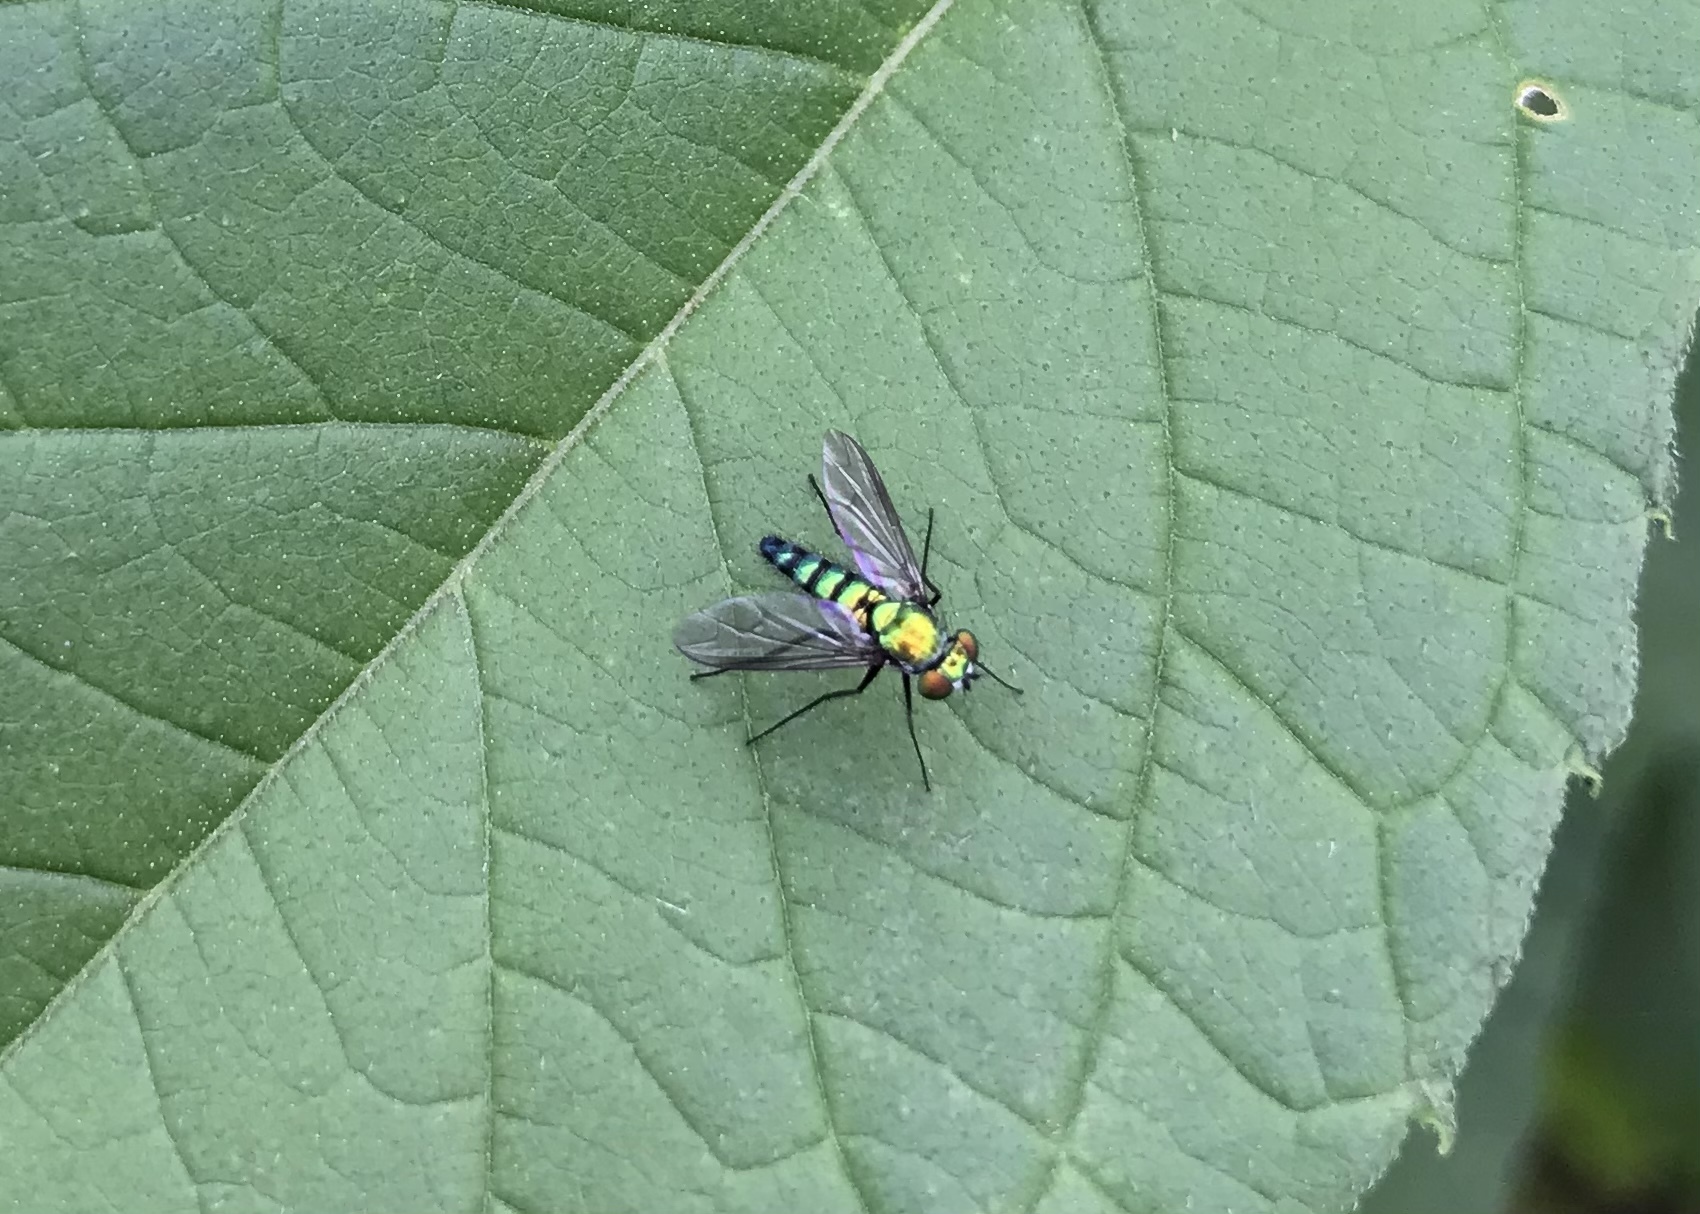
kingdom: Animalia
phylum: Arthropoda
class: Insecta
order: Diptera
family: Dolichopodidae
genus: Condylostylus
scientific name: Condylostylus longicornis
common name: Long-legged fly
